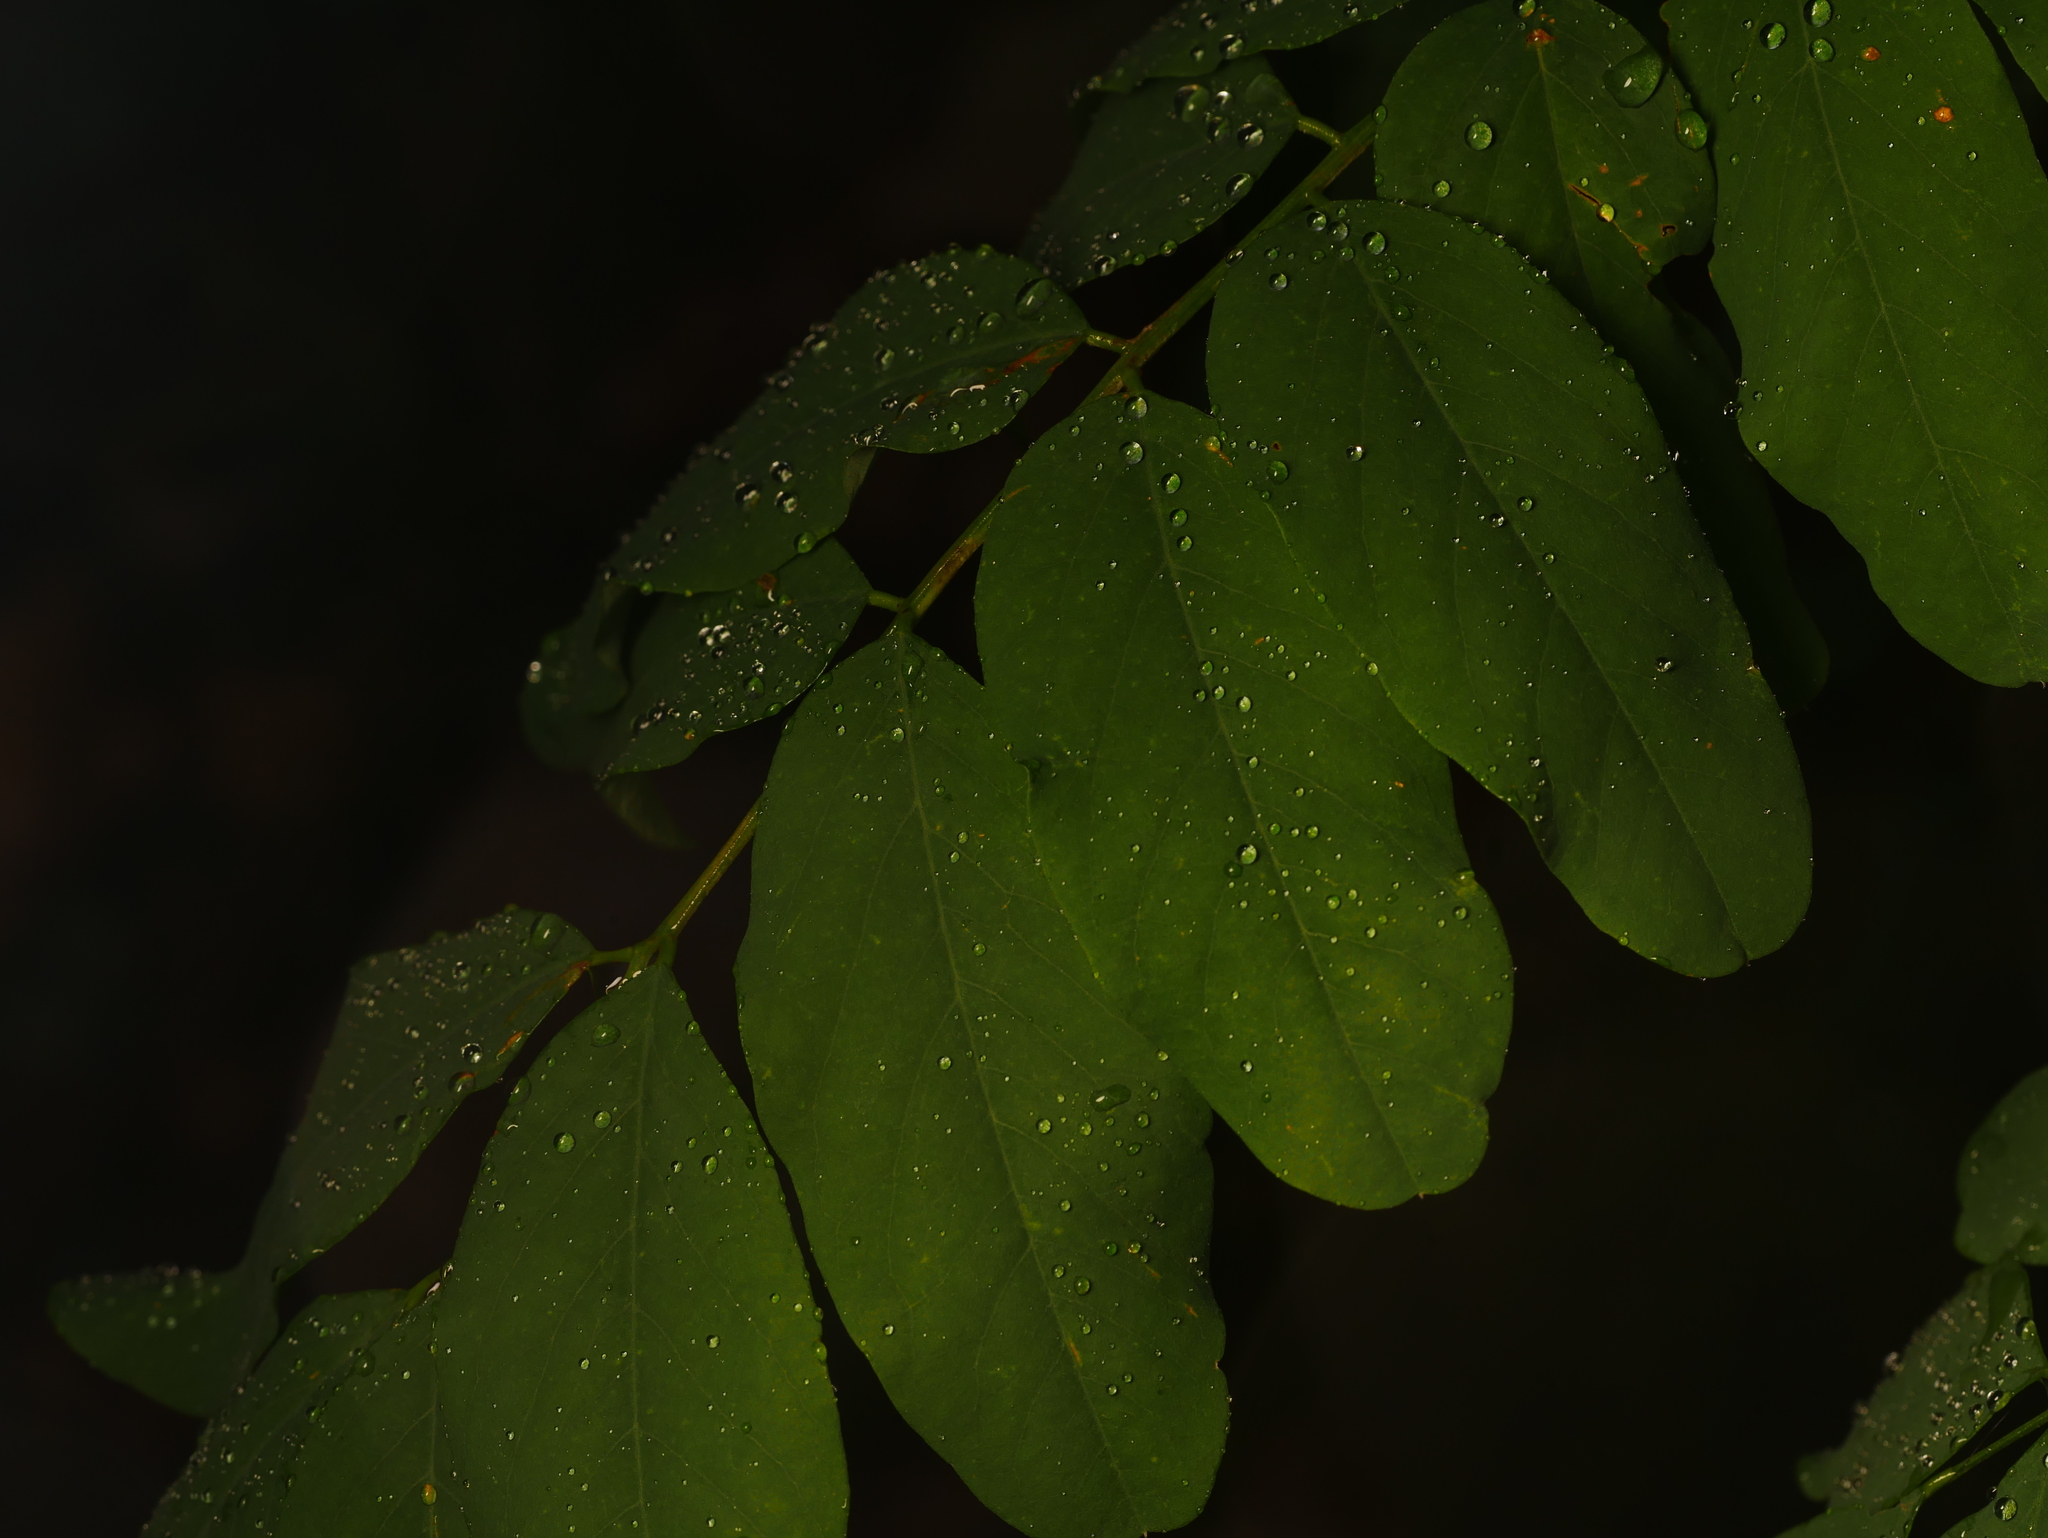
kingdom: Plantae
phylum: Tracheophyta
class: Magnoliopsida
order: Fabales
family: Fabaceae
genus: Robinia
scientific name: Robinia pseudoacacia
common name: Black locust
